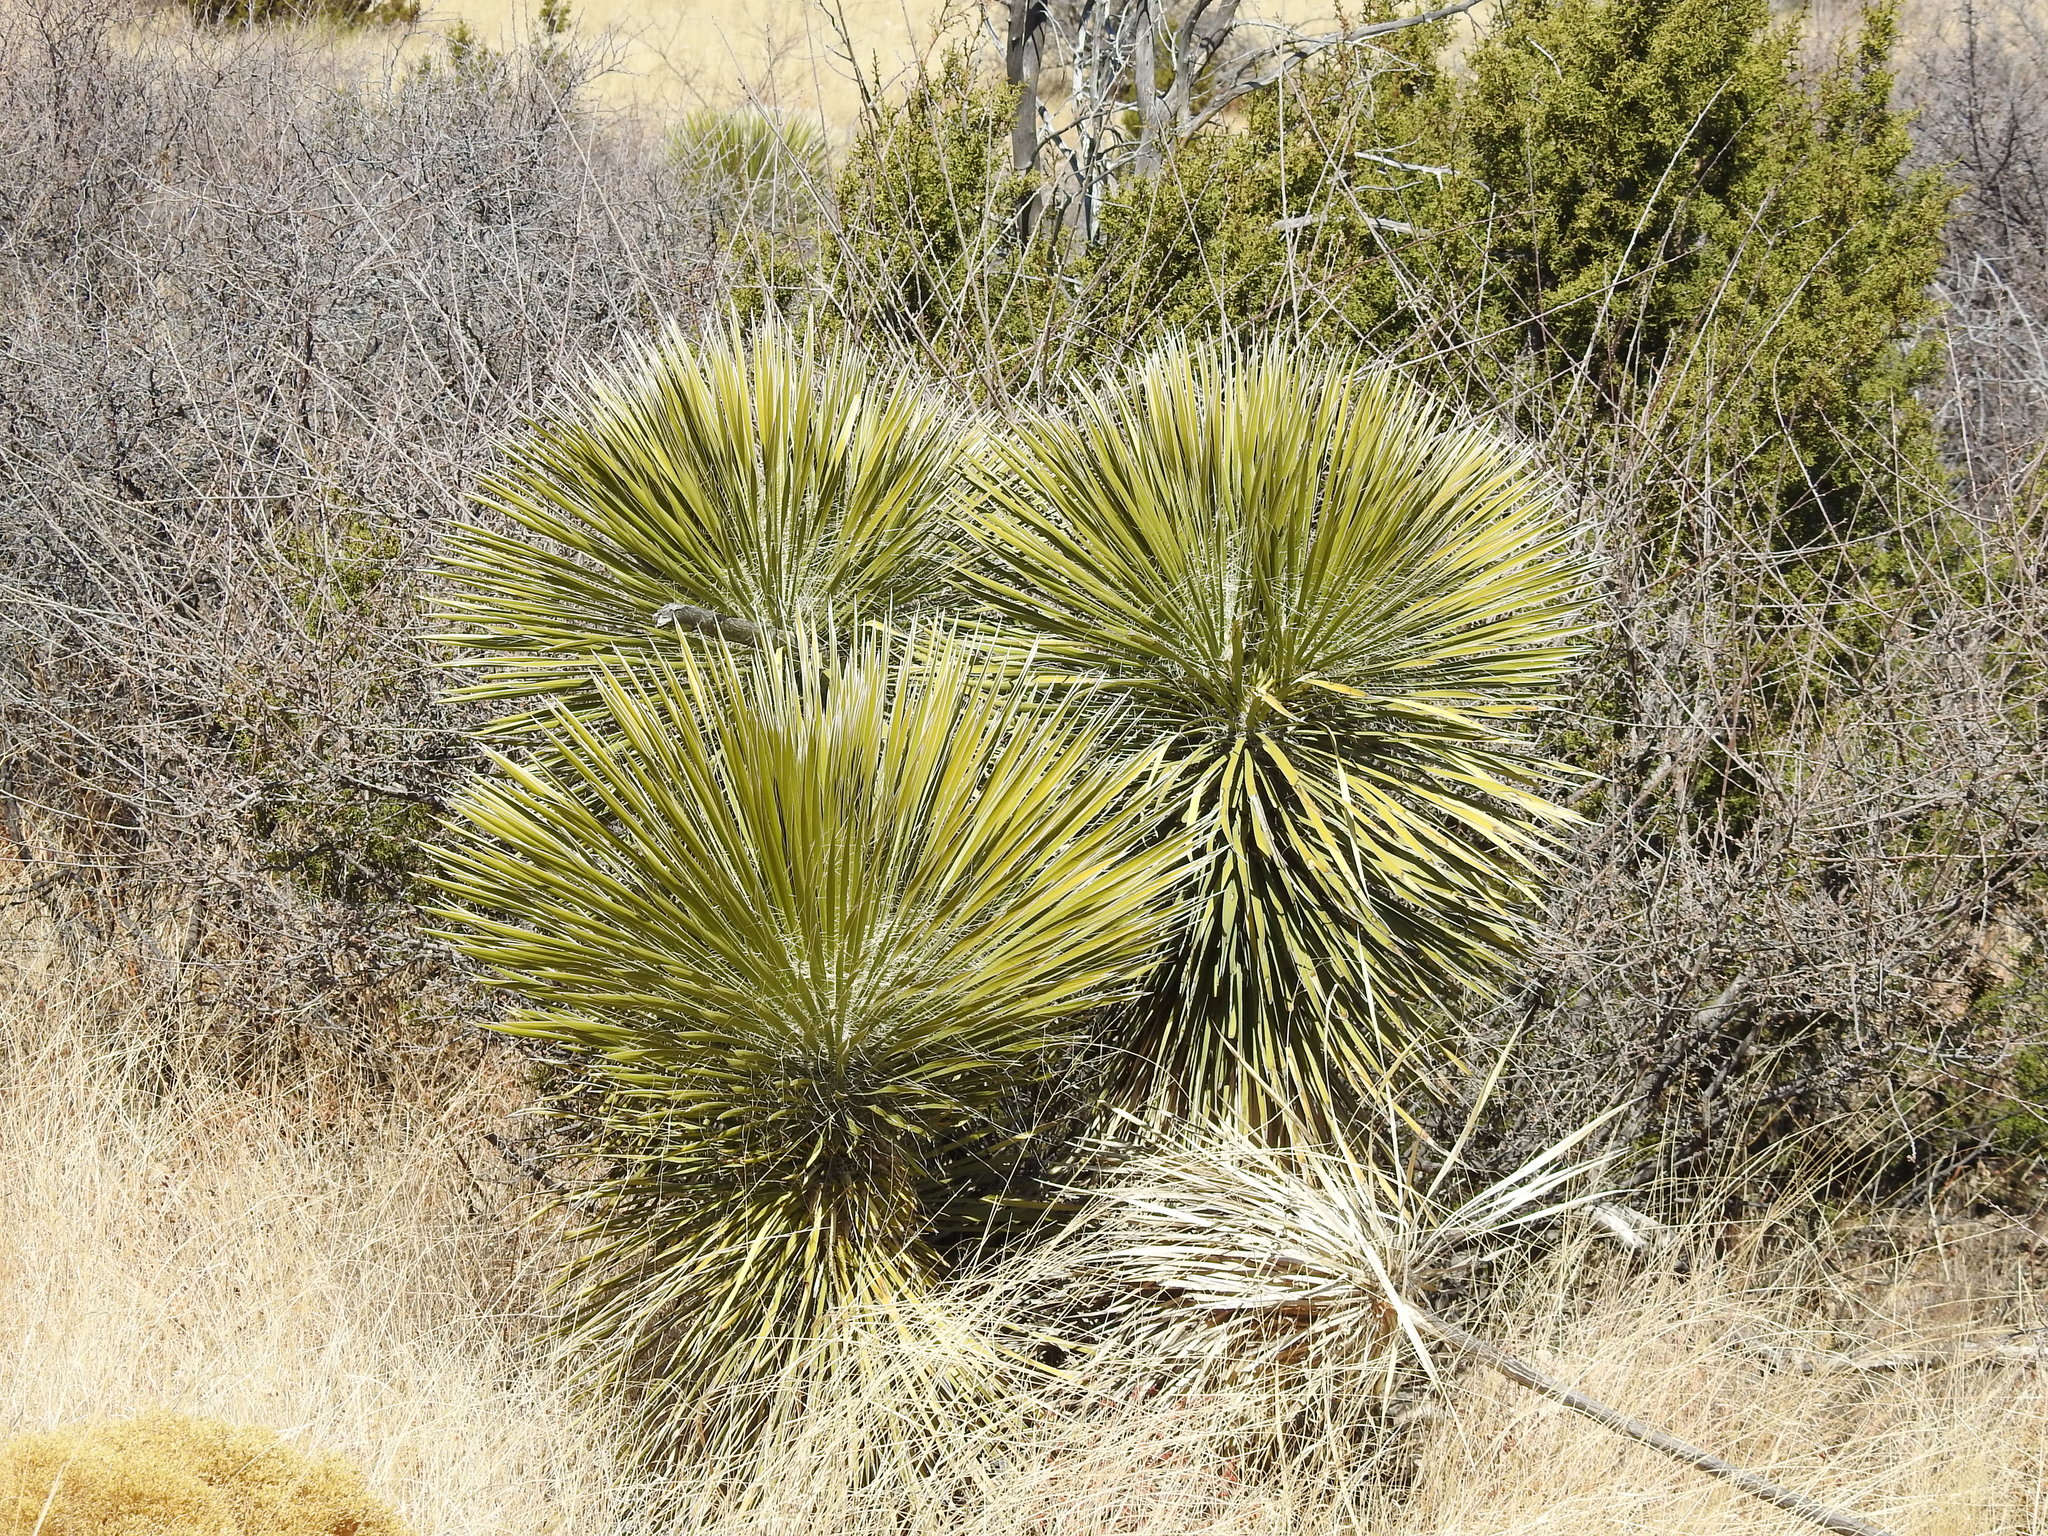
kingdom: Plantae
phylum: Tracheophyta
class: Liliopsida
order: Asparagales
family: Asparagaceae
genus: Yucca
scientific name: Yucca elata
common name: Palmella
